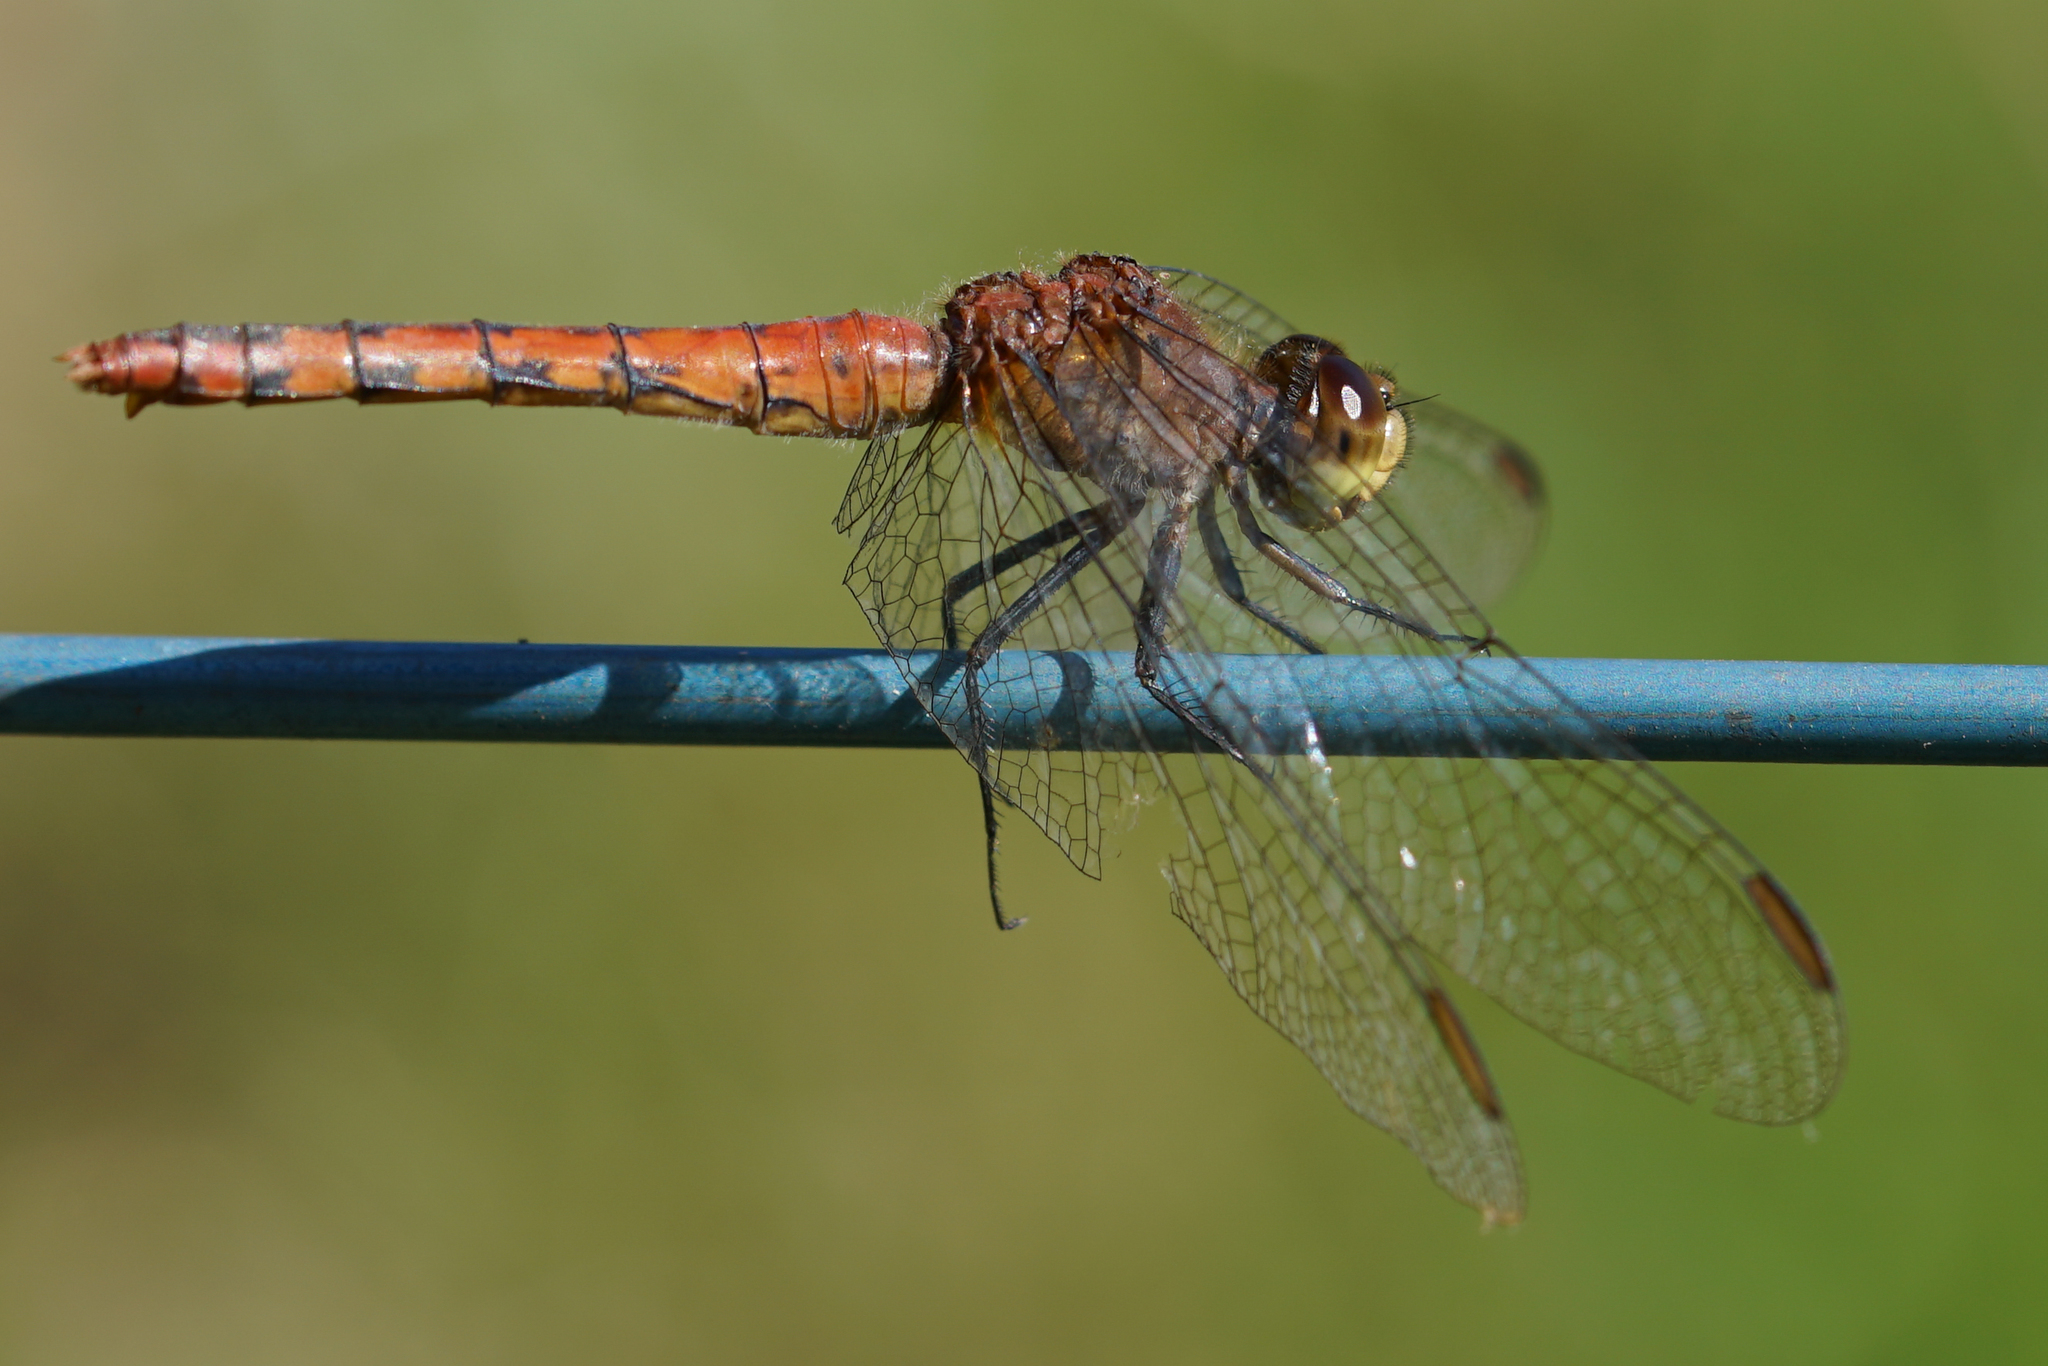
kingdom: Animalia
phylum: Arthropoda
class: Insecta
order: Odonata
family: Libellulidae
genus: Diplacodes
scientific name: Diplacodes melanopsis
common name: Black-faced percher
